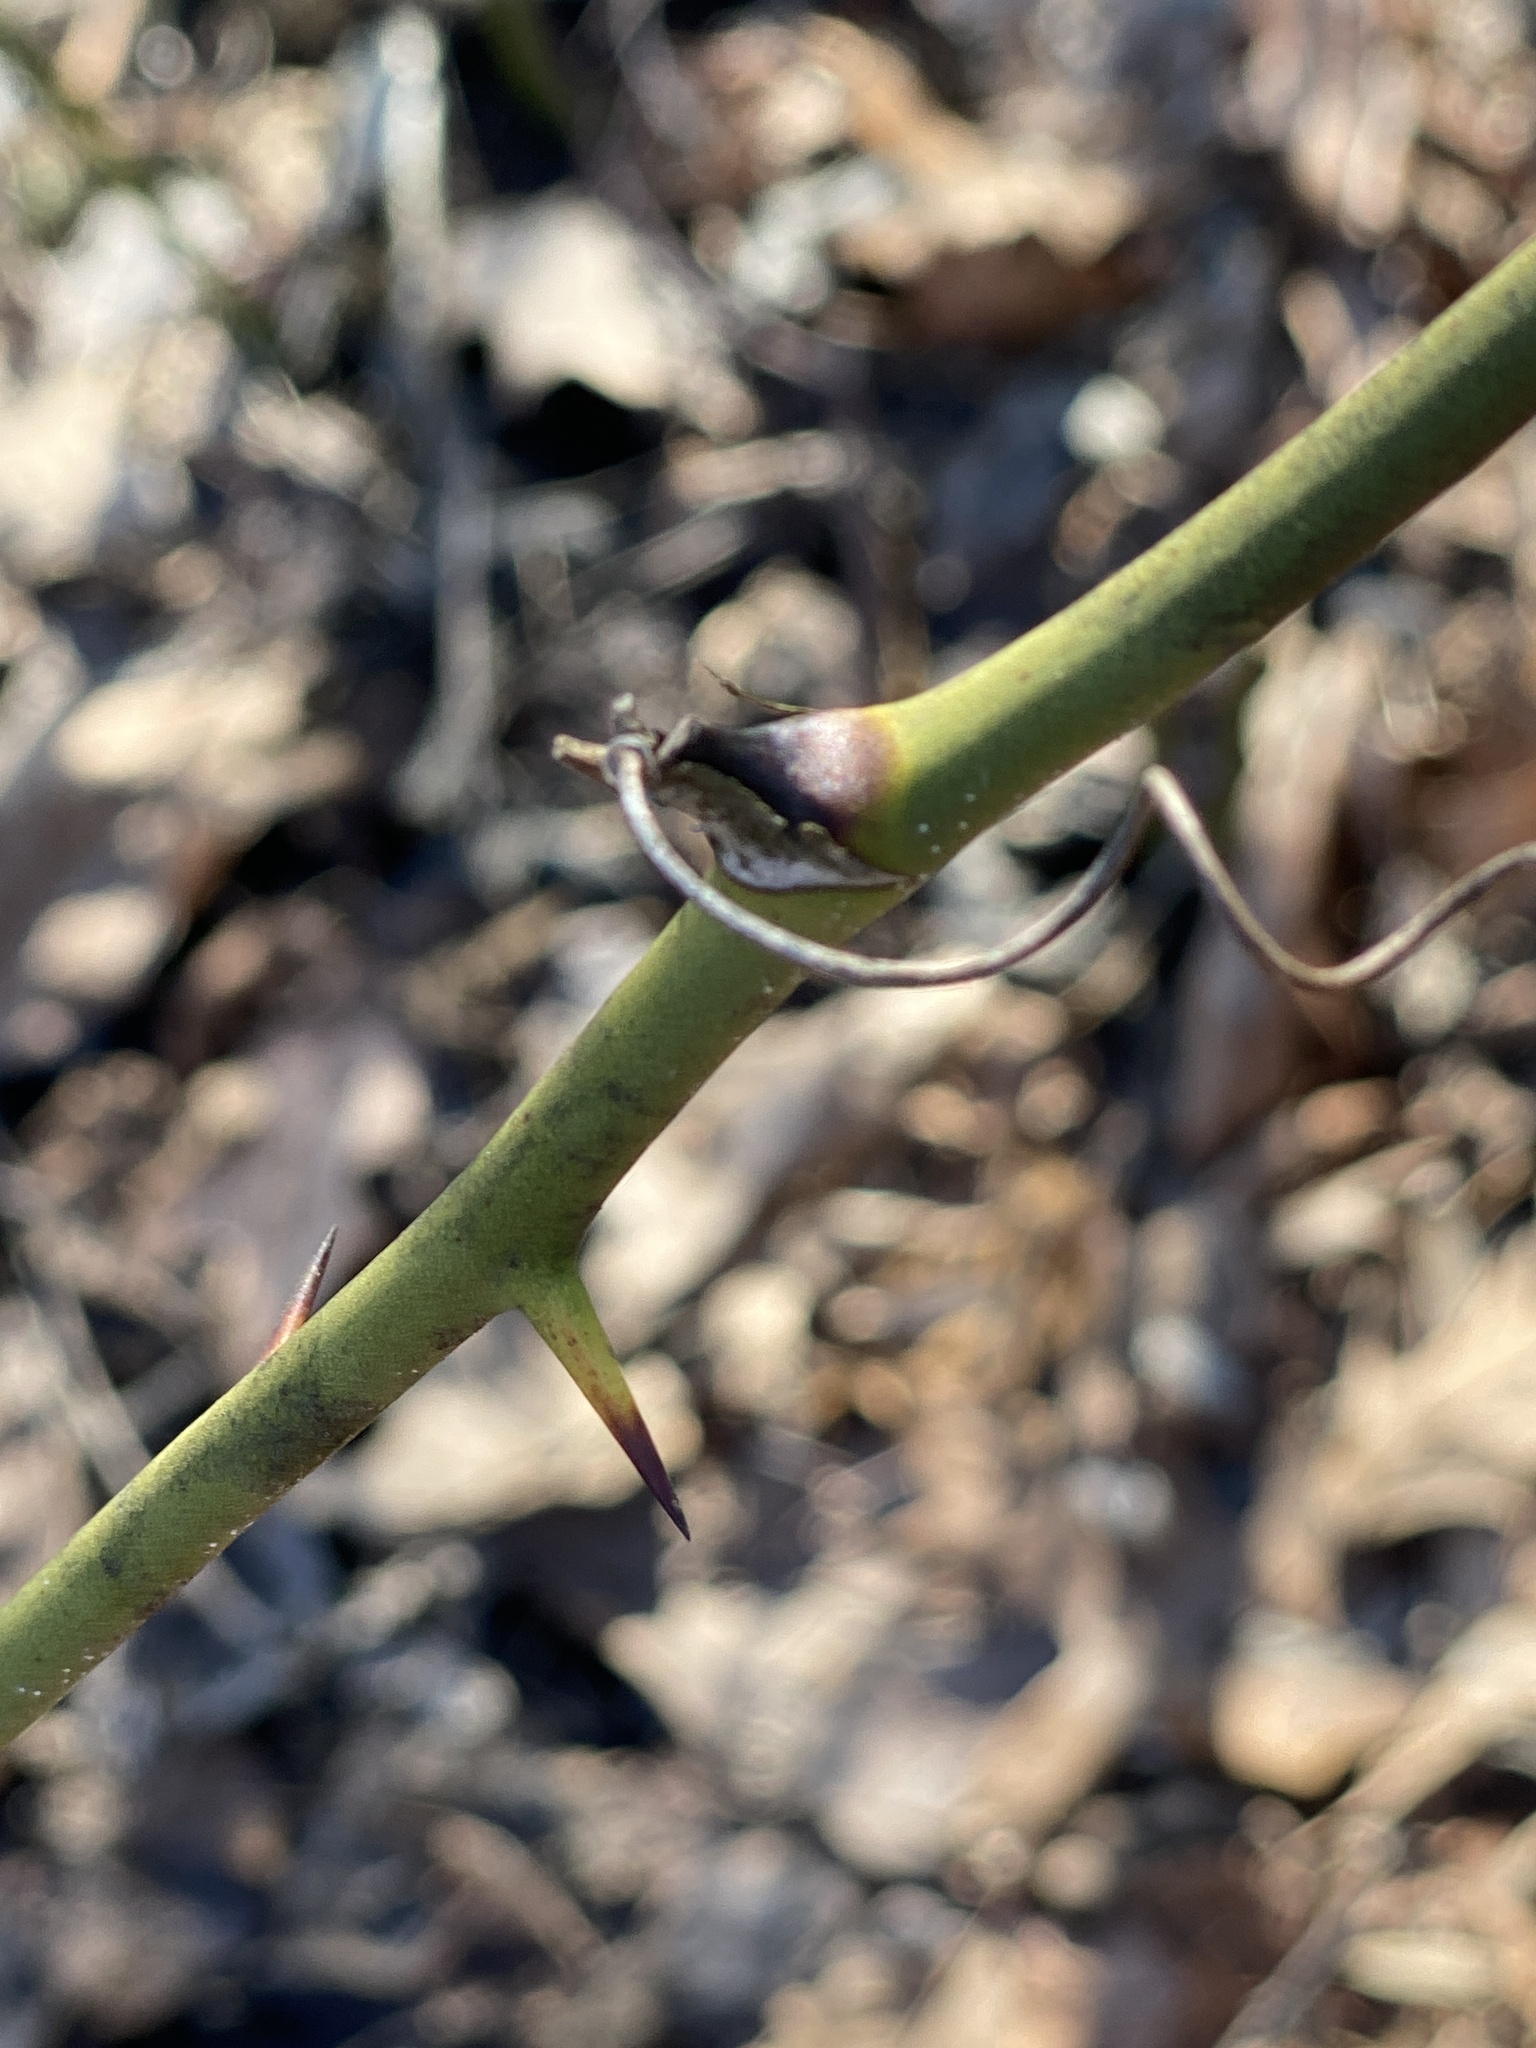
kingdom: Plantae
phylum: Tracheophyta
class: Liliopsida
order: Liliales
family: Smilacaceae
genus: Smilax
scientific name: Smilax rotundifolia
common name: Bullbriar
